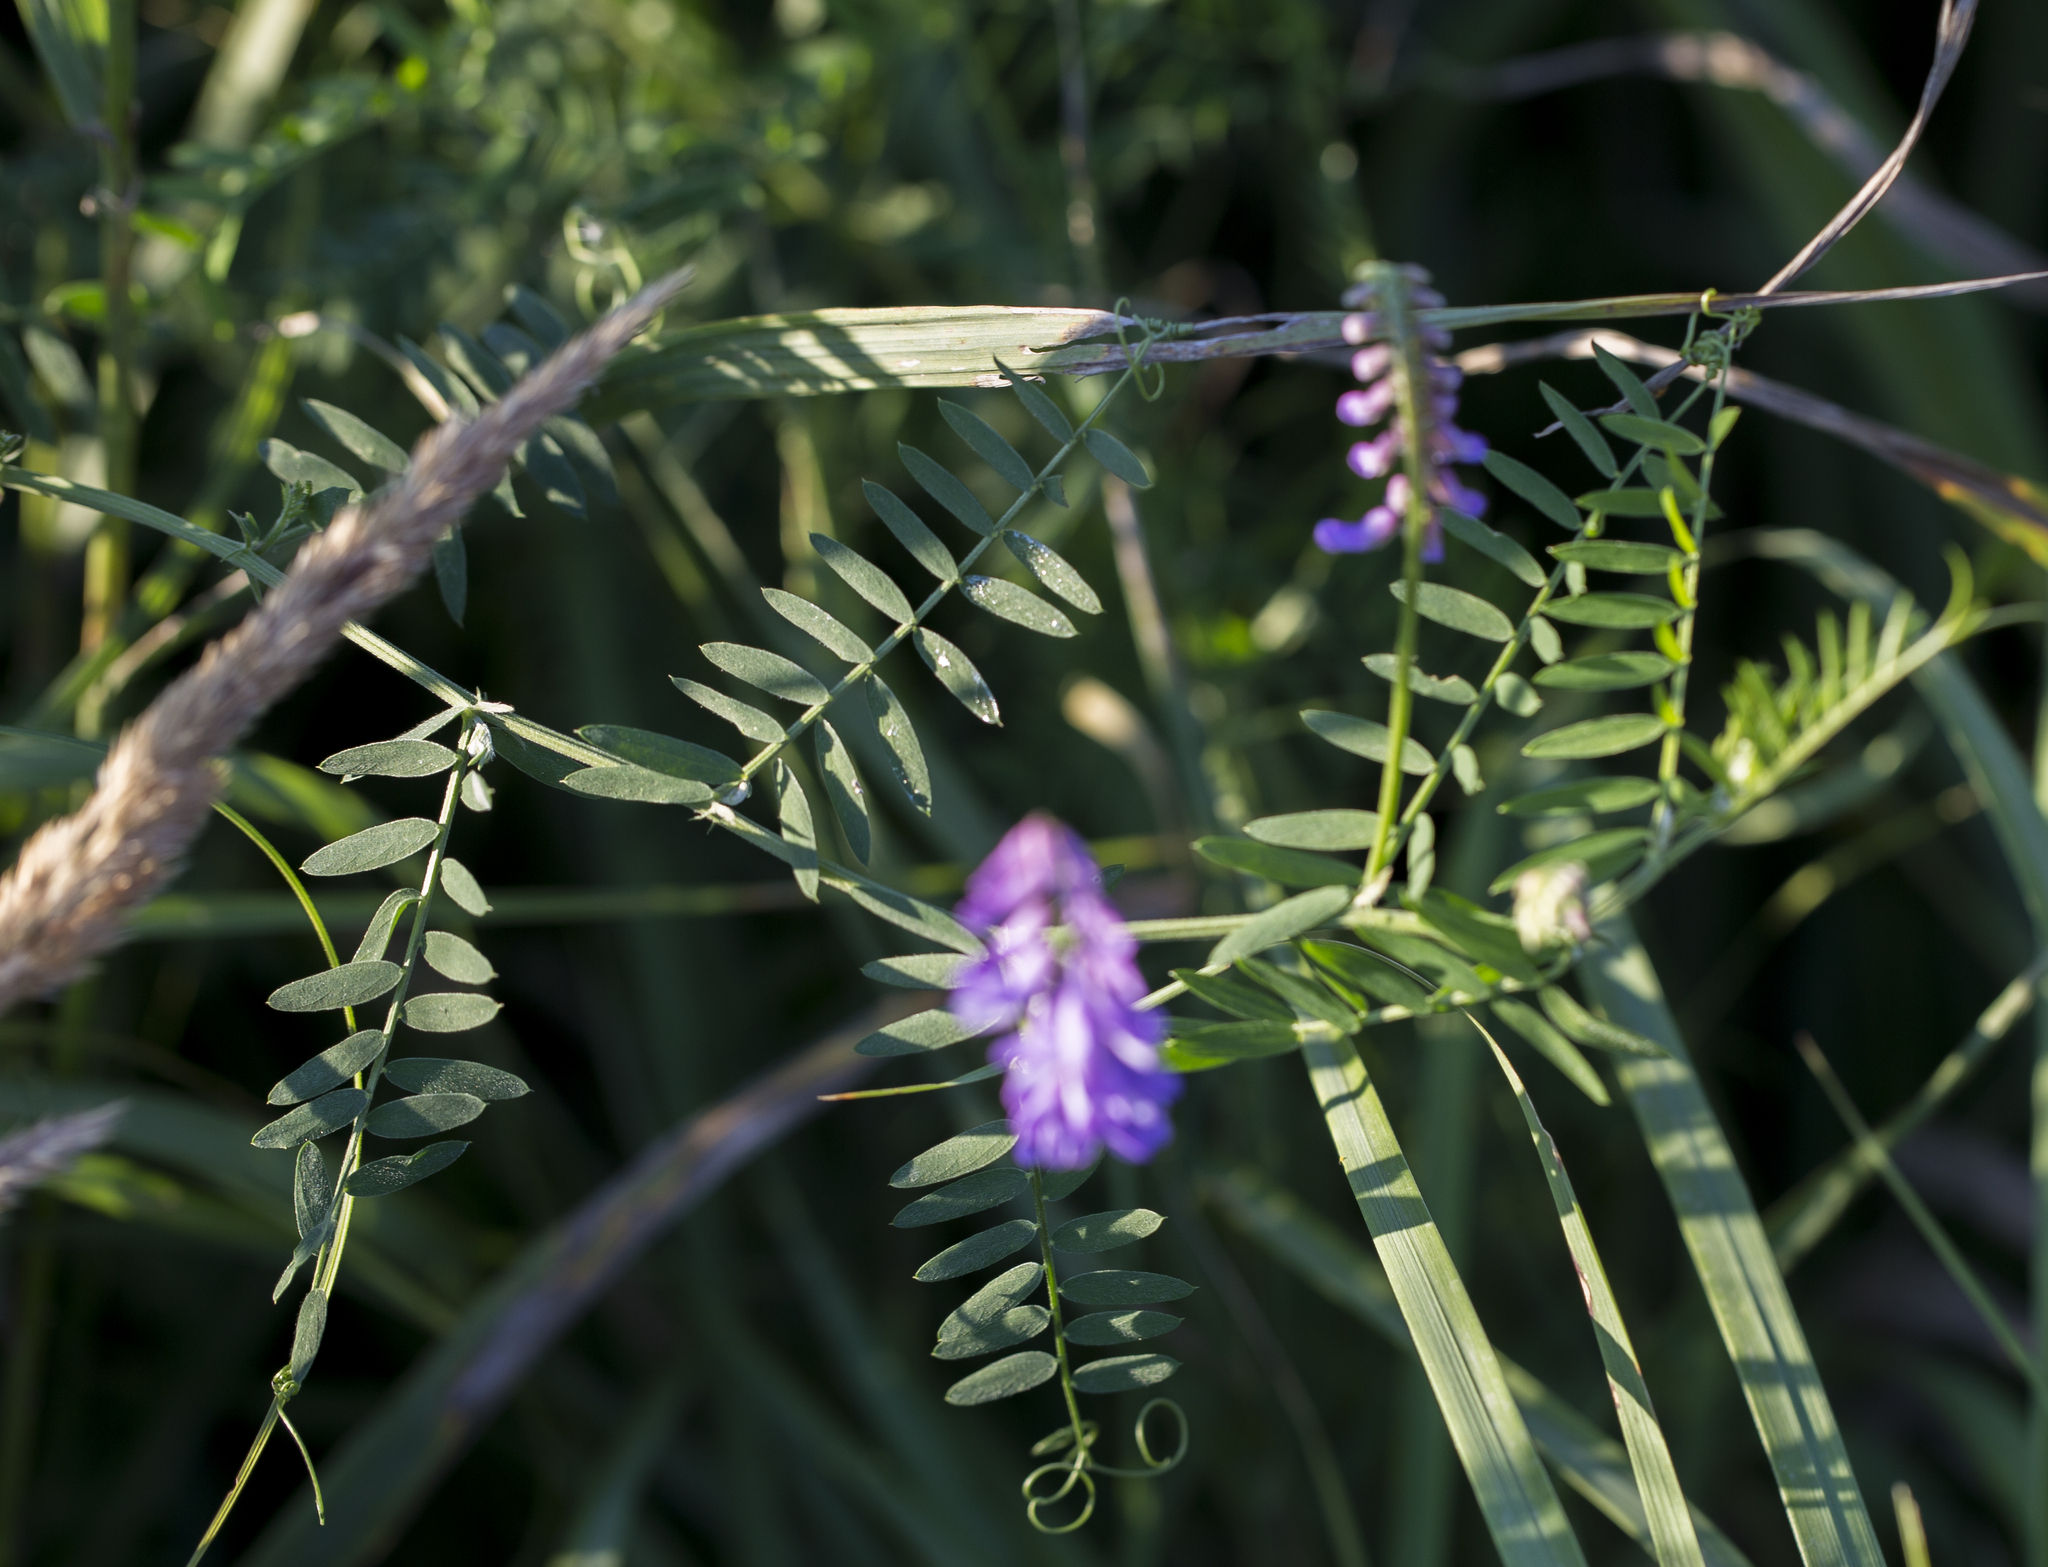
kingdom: Plantae
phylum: Tracheophyta
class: Magnoliopsida
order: Fabales
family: Fabaceae
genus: Vicia
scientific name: Vicia cracca
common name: Bird vetch
